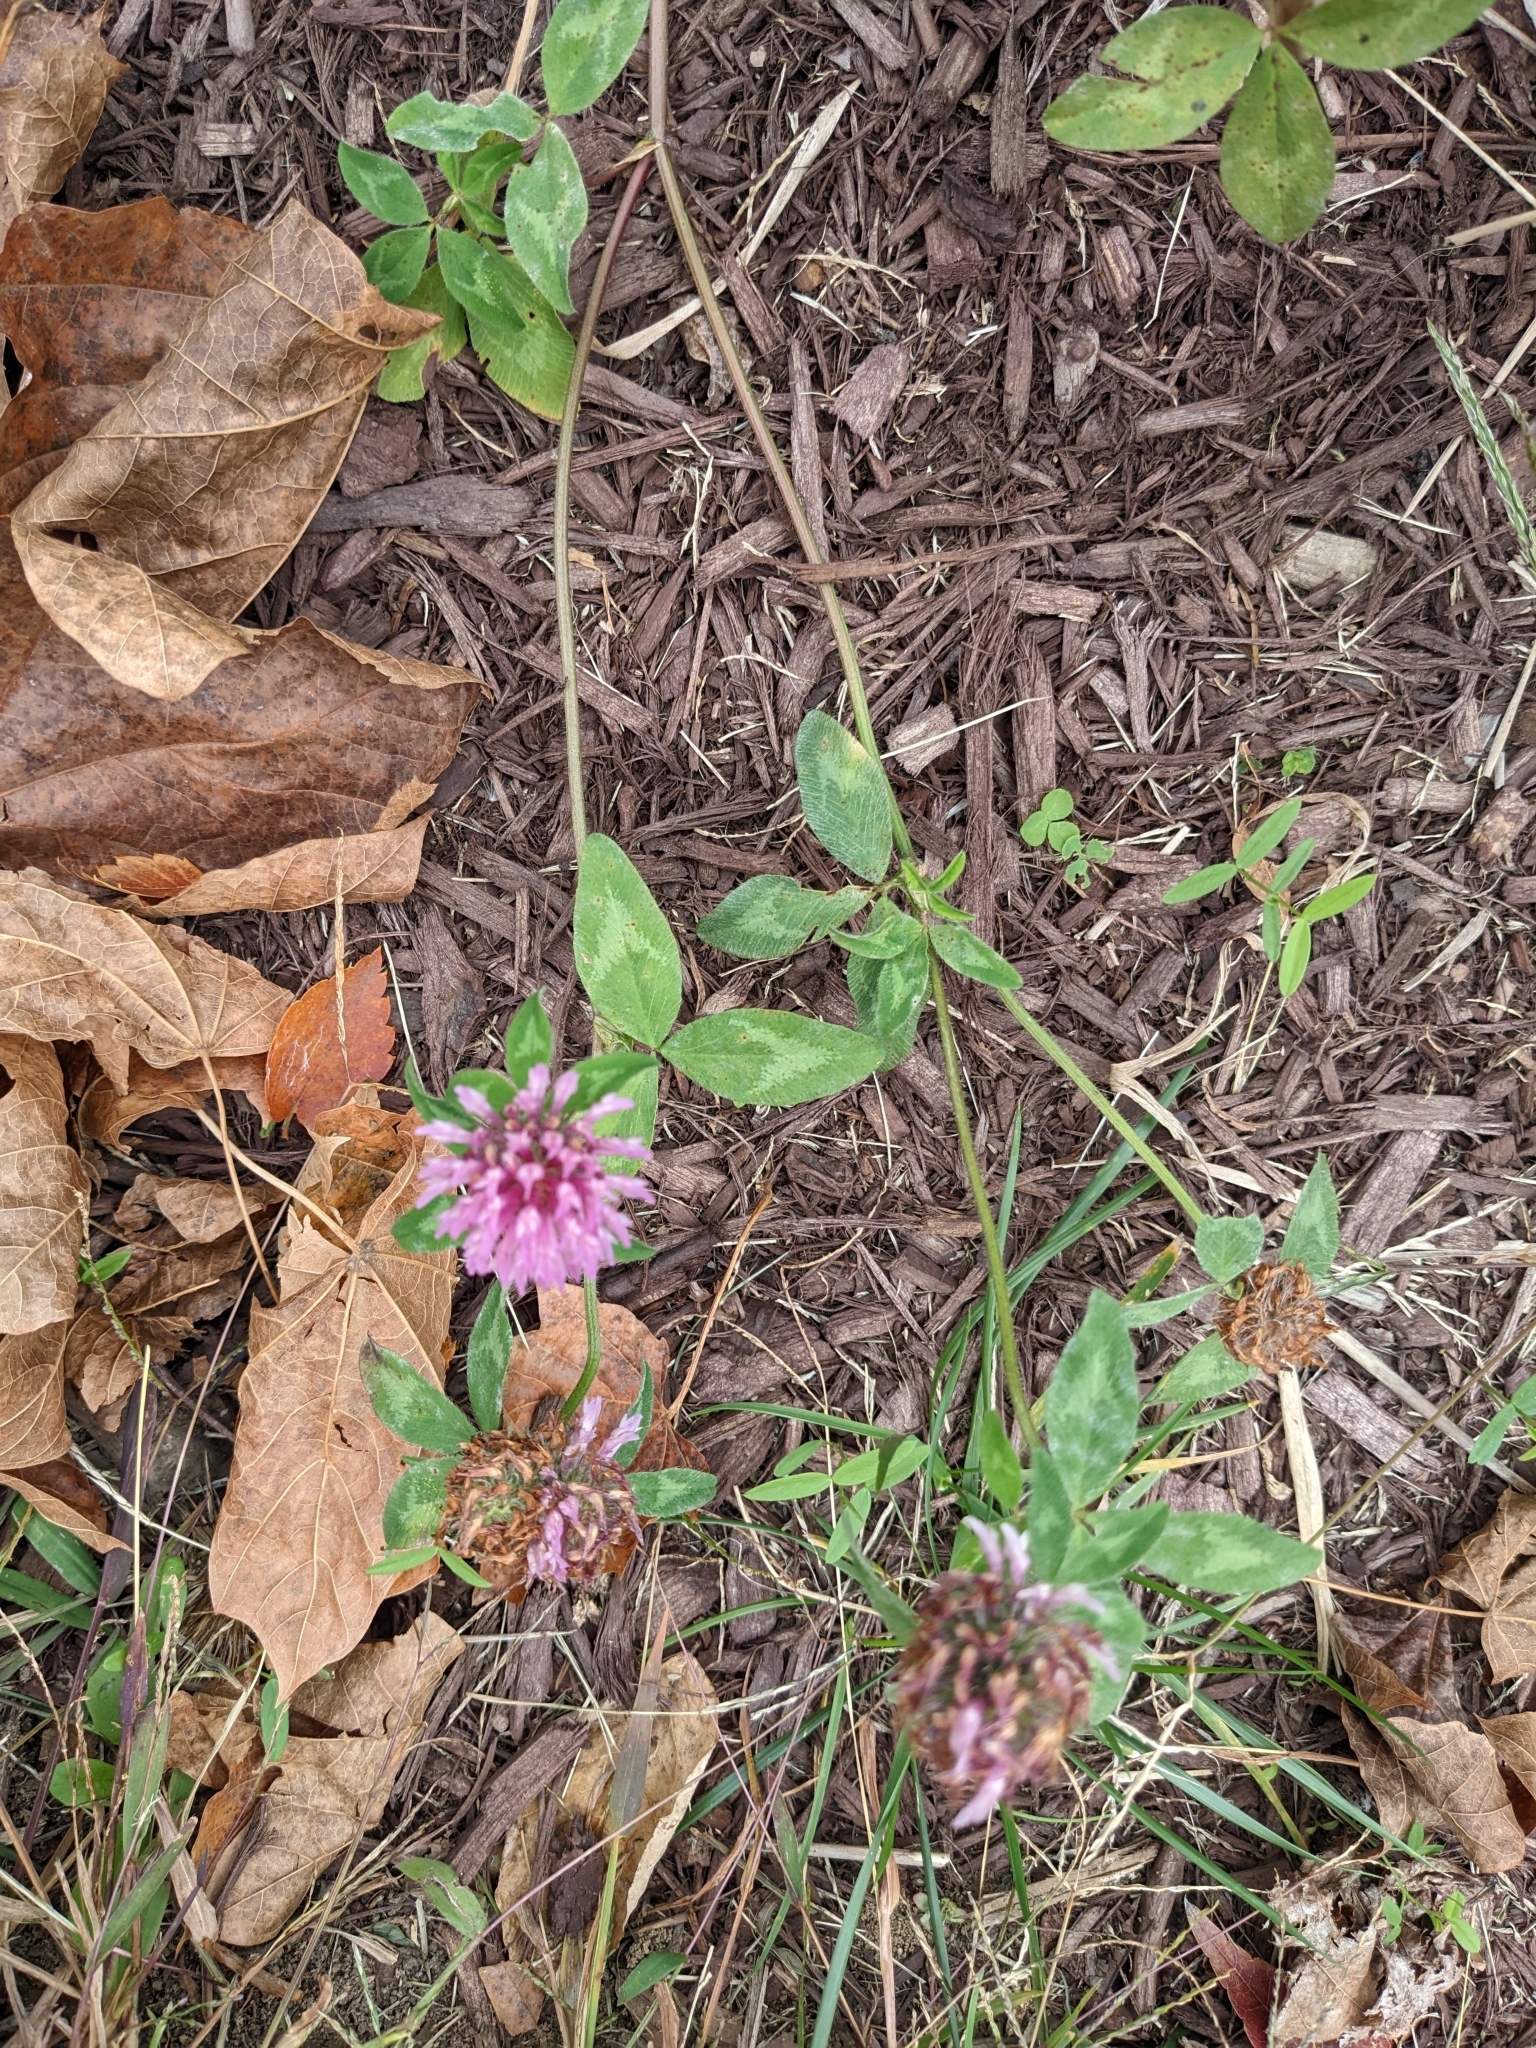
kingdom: Plantae
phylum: Tracheophyta
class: Magnoliopsida
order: Fabales
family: Fabaceae
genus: Trifolium
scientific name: Trifolium pratense
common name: Red clover
